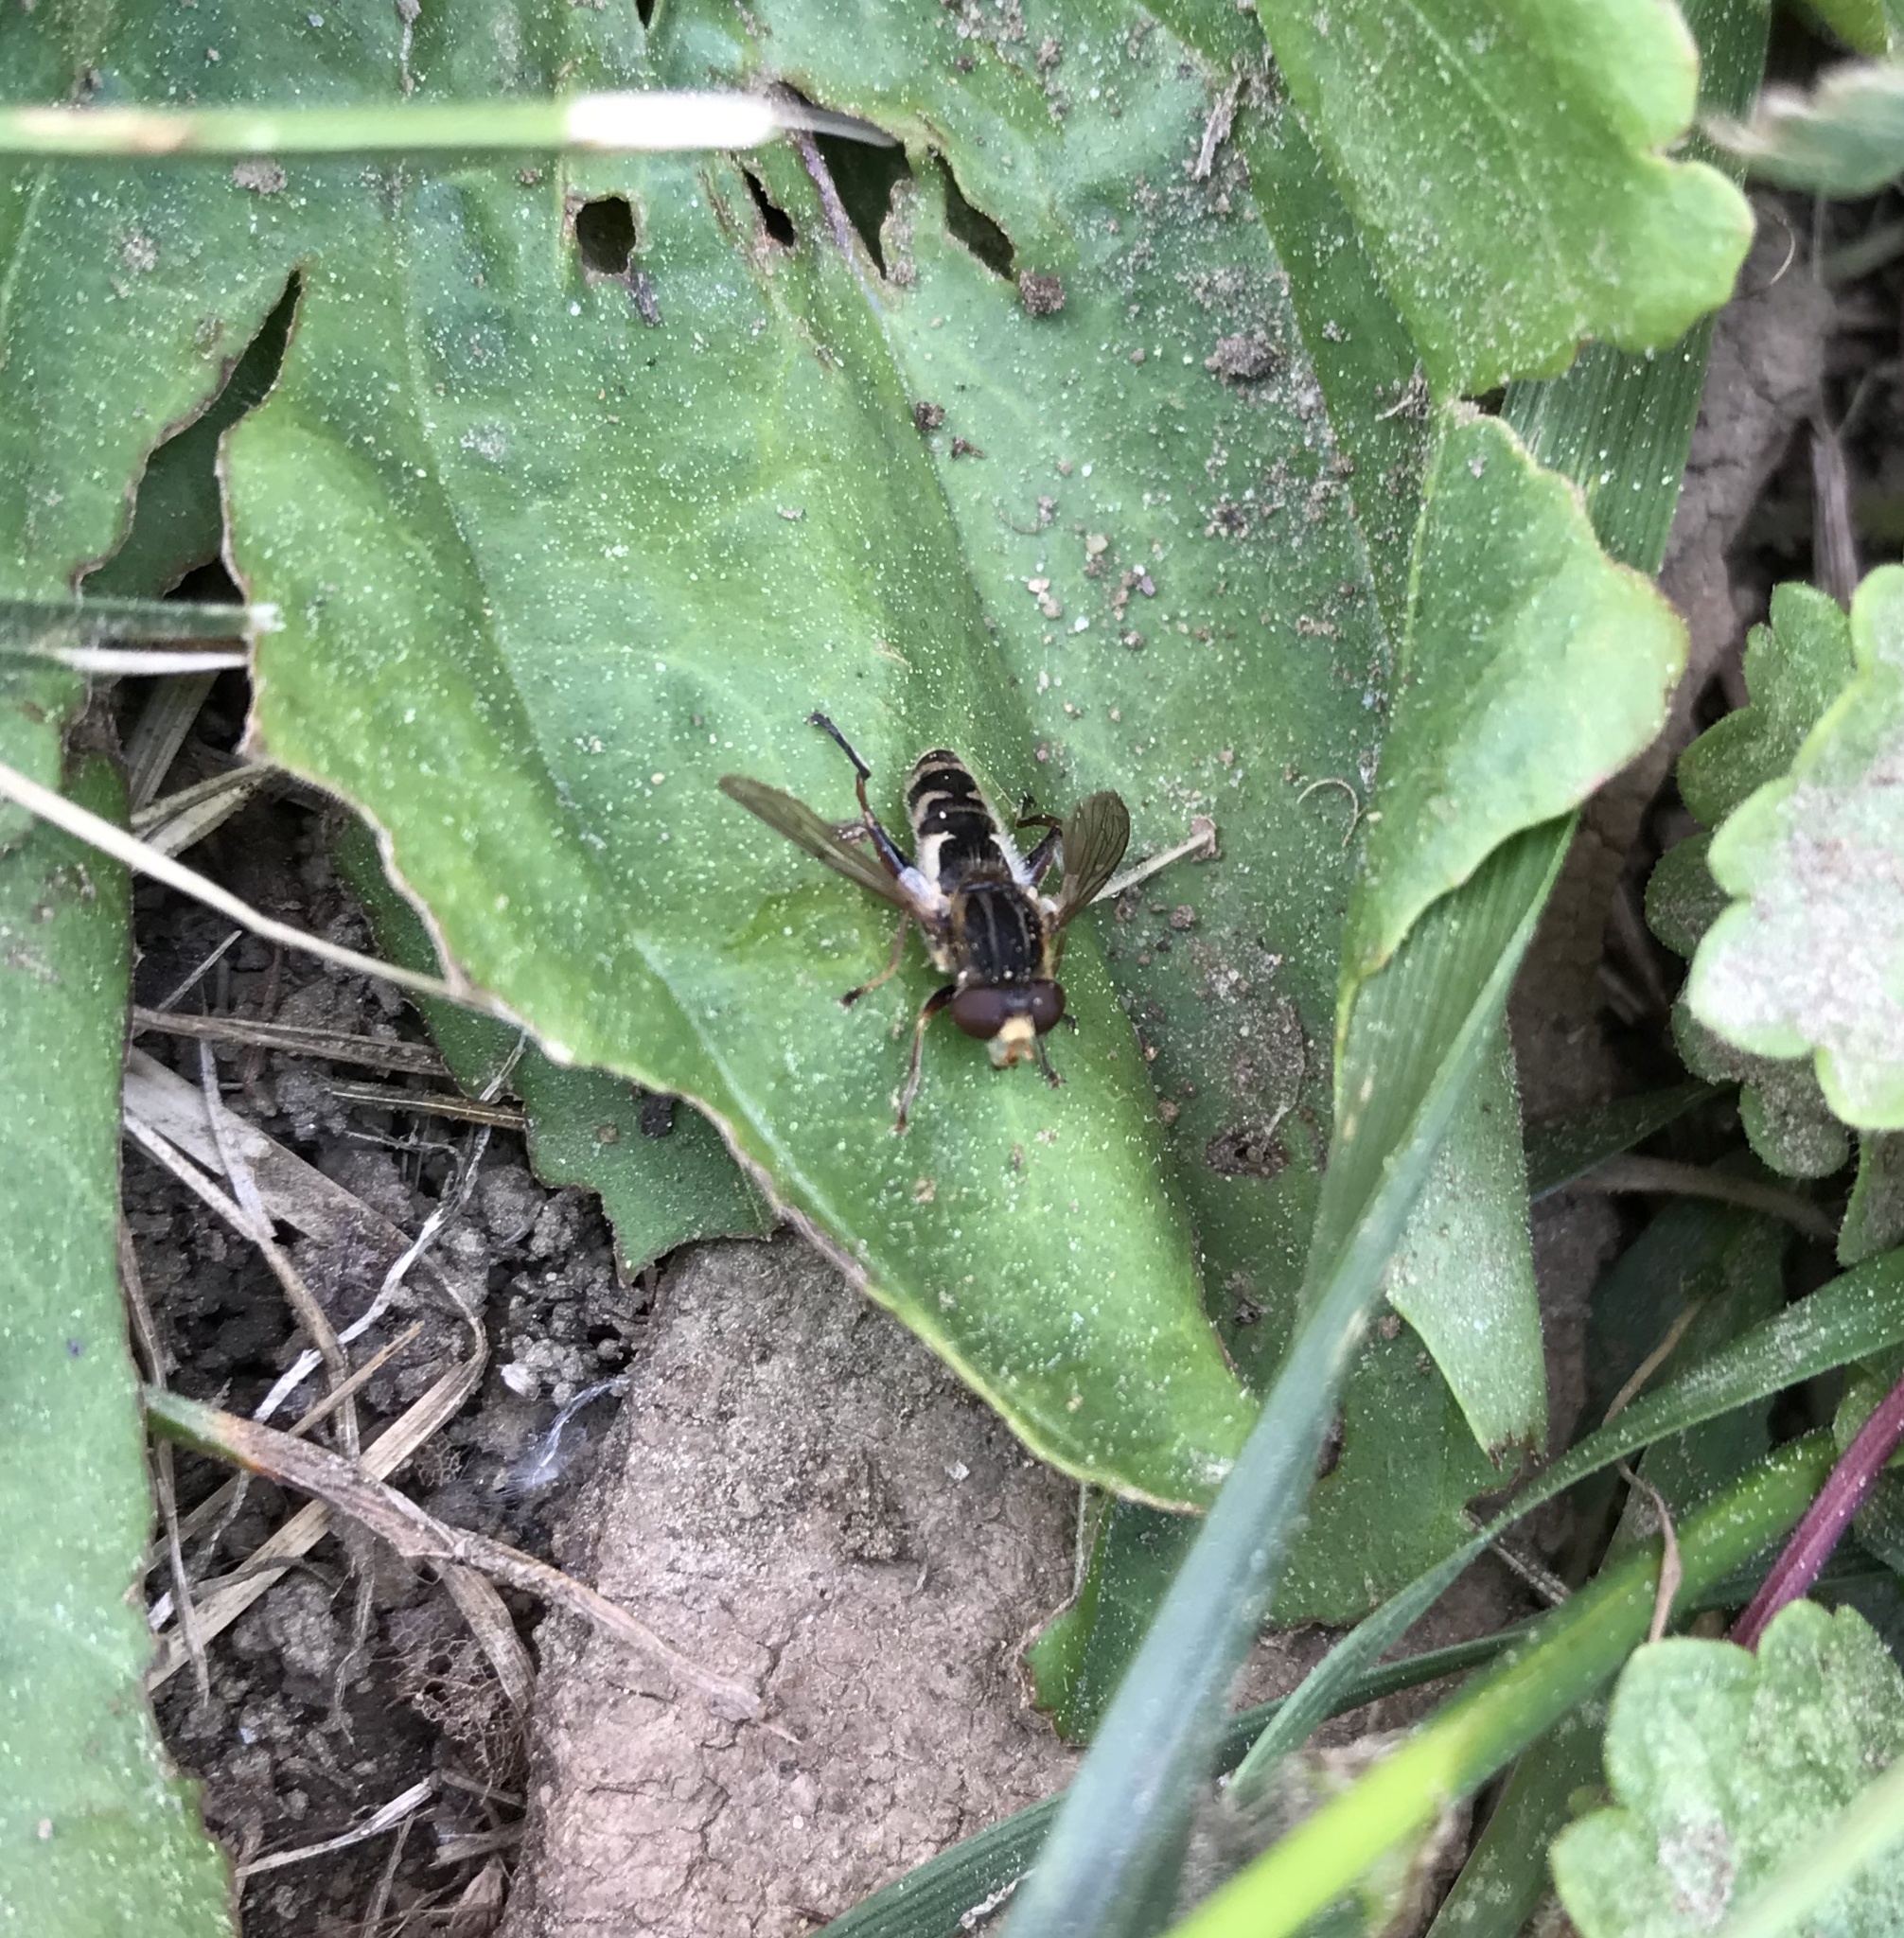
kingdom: Animalia
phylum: Arthropoda
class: Insecta
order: Diptera
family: Syrphidae
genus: Anasimyia
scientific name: Anasimyia anausis
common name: Moon-shaped swamp fly
